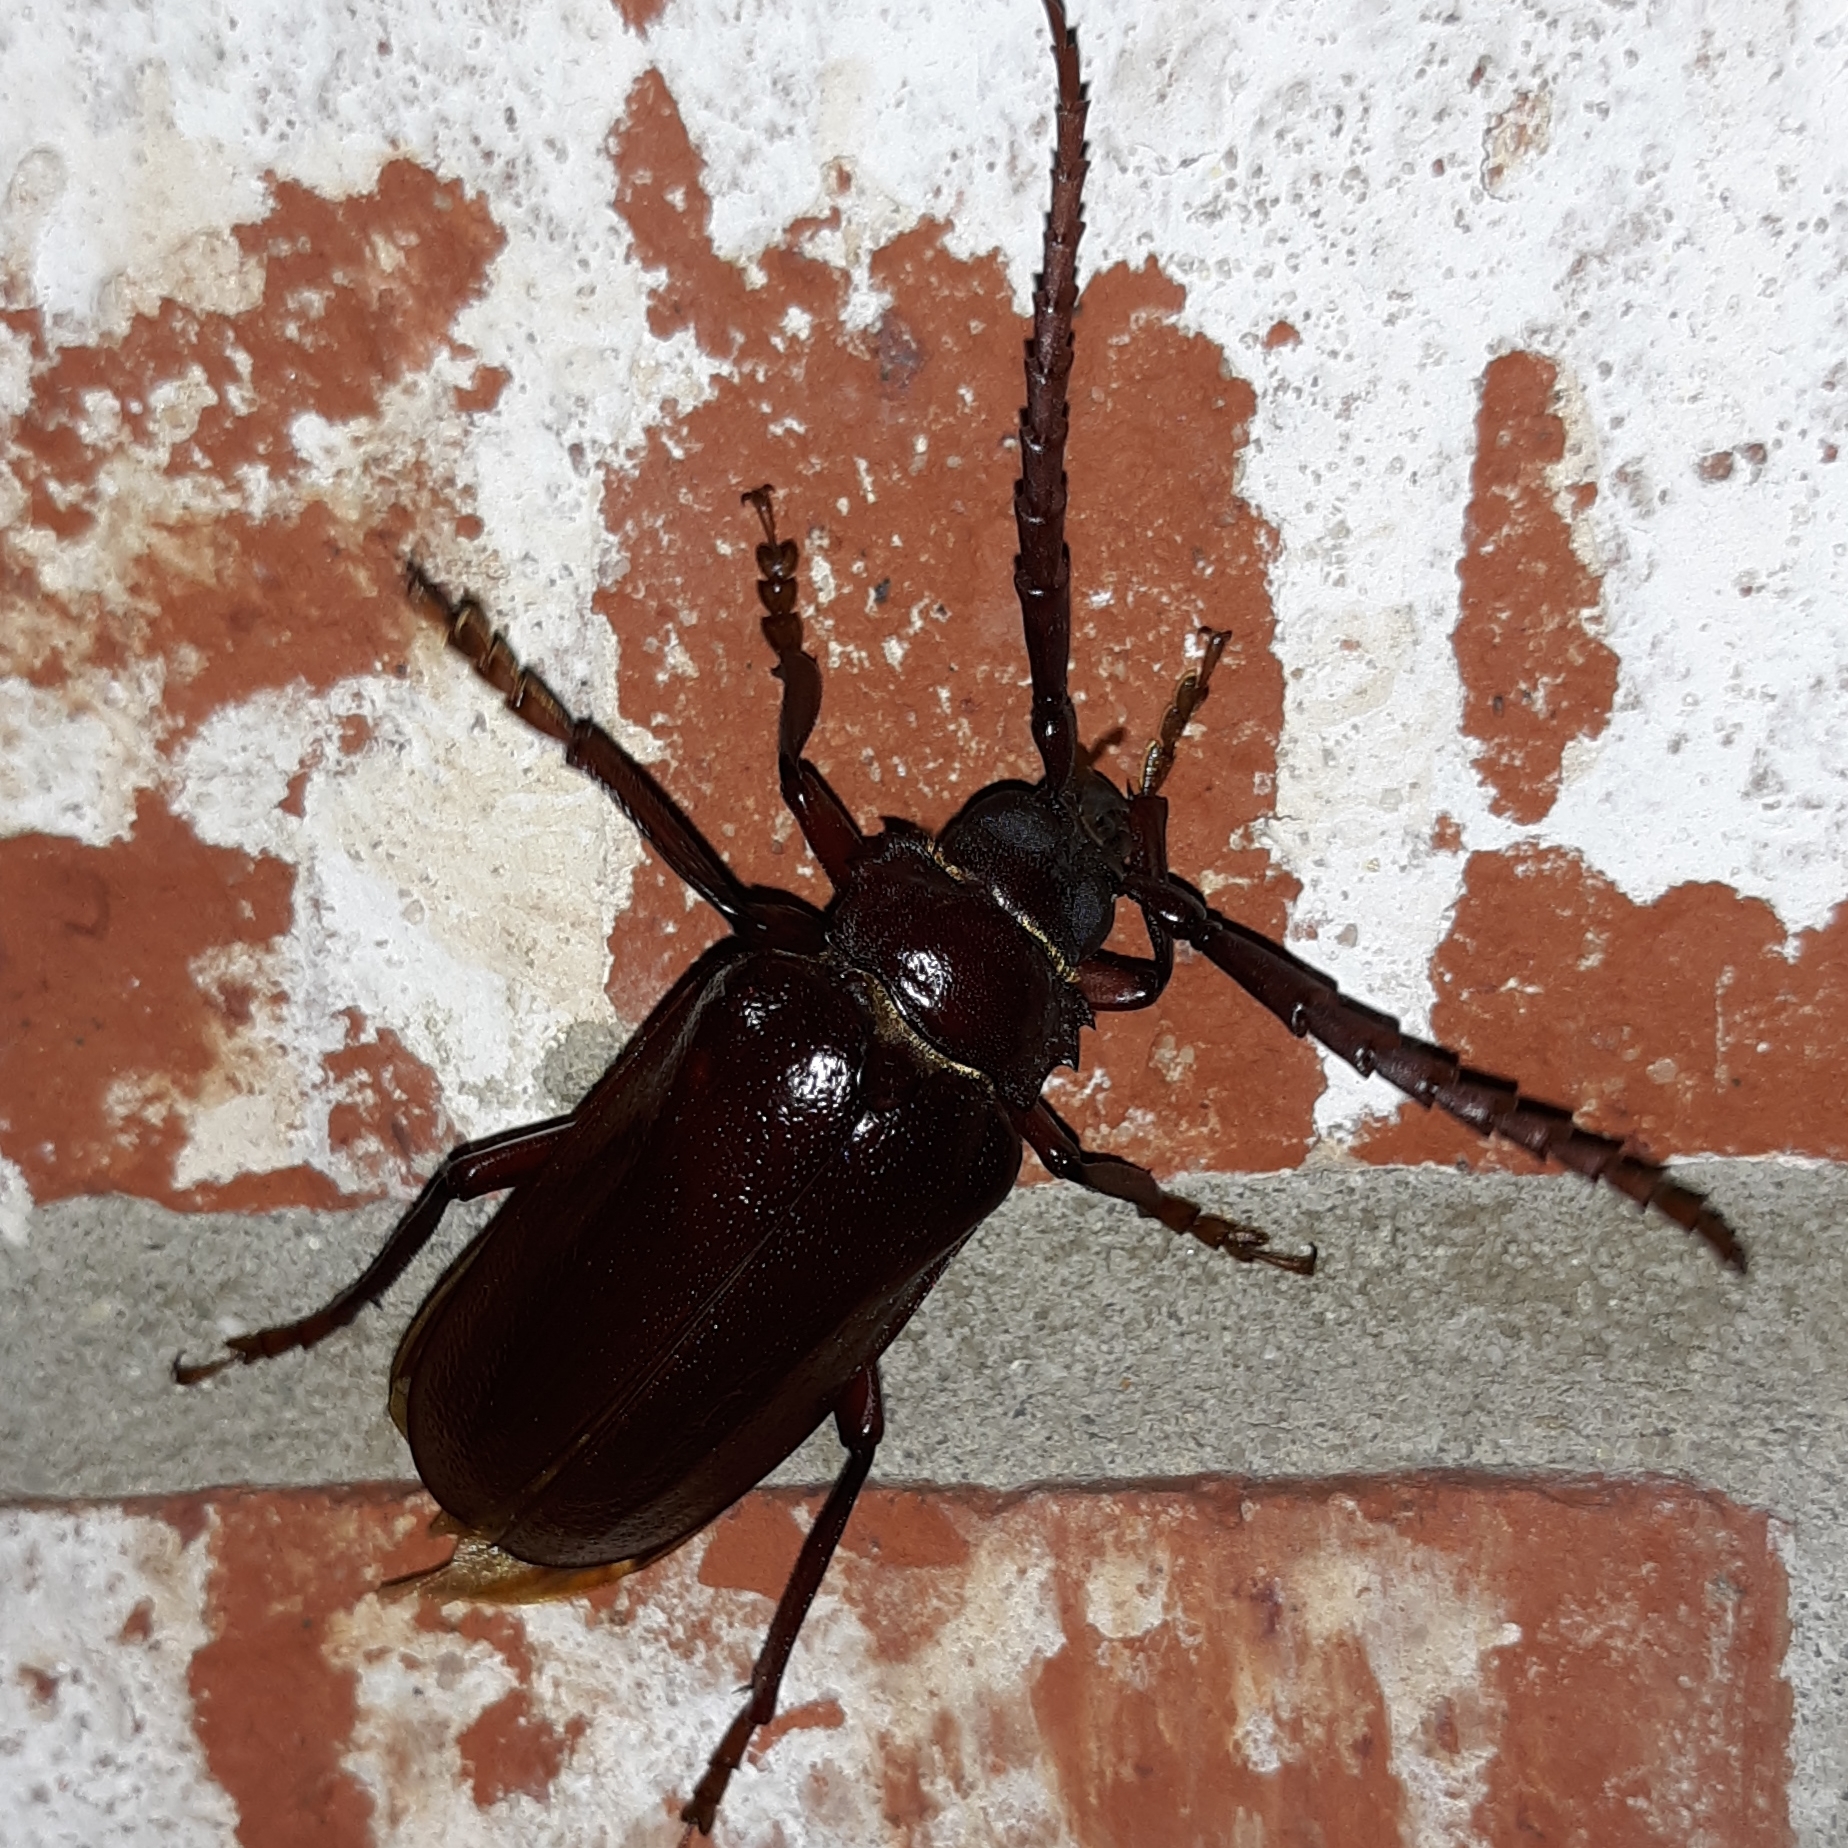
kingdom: Animalia
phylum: Arthropoda
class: Insecta
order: Coleoptera
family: Cerambycidae
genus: Prionus
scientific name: Prionus pocularis
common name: Tooth-necked longhorn beetle
